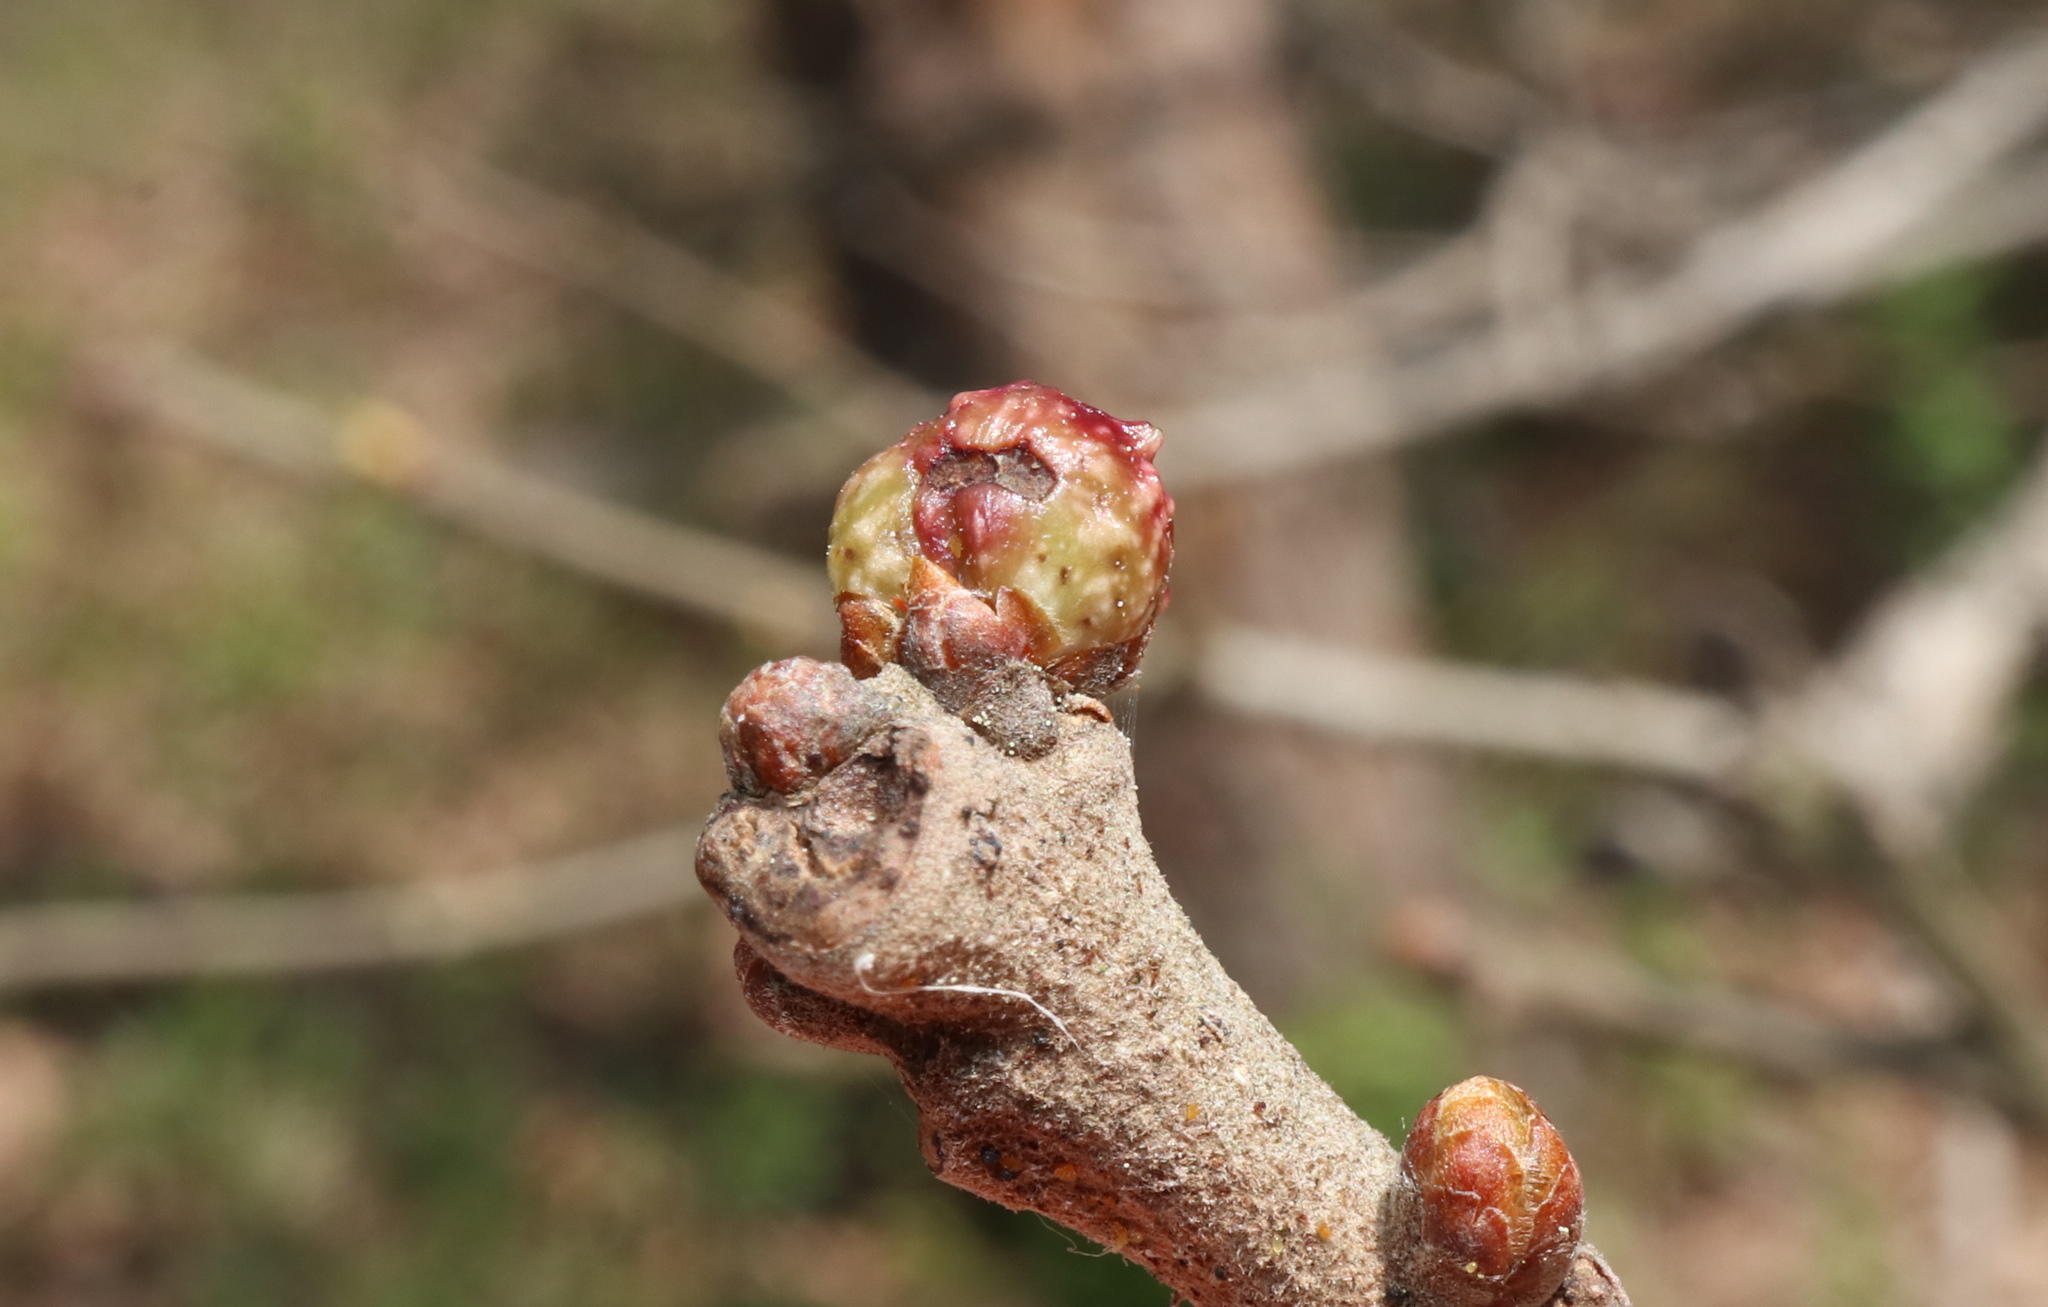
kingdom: Animalia
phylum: Arthropoda
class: Insecta
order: Hymenoptera
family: Cynipidae
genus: Andricus
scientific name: Andricus
